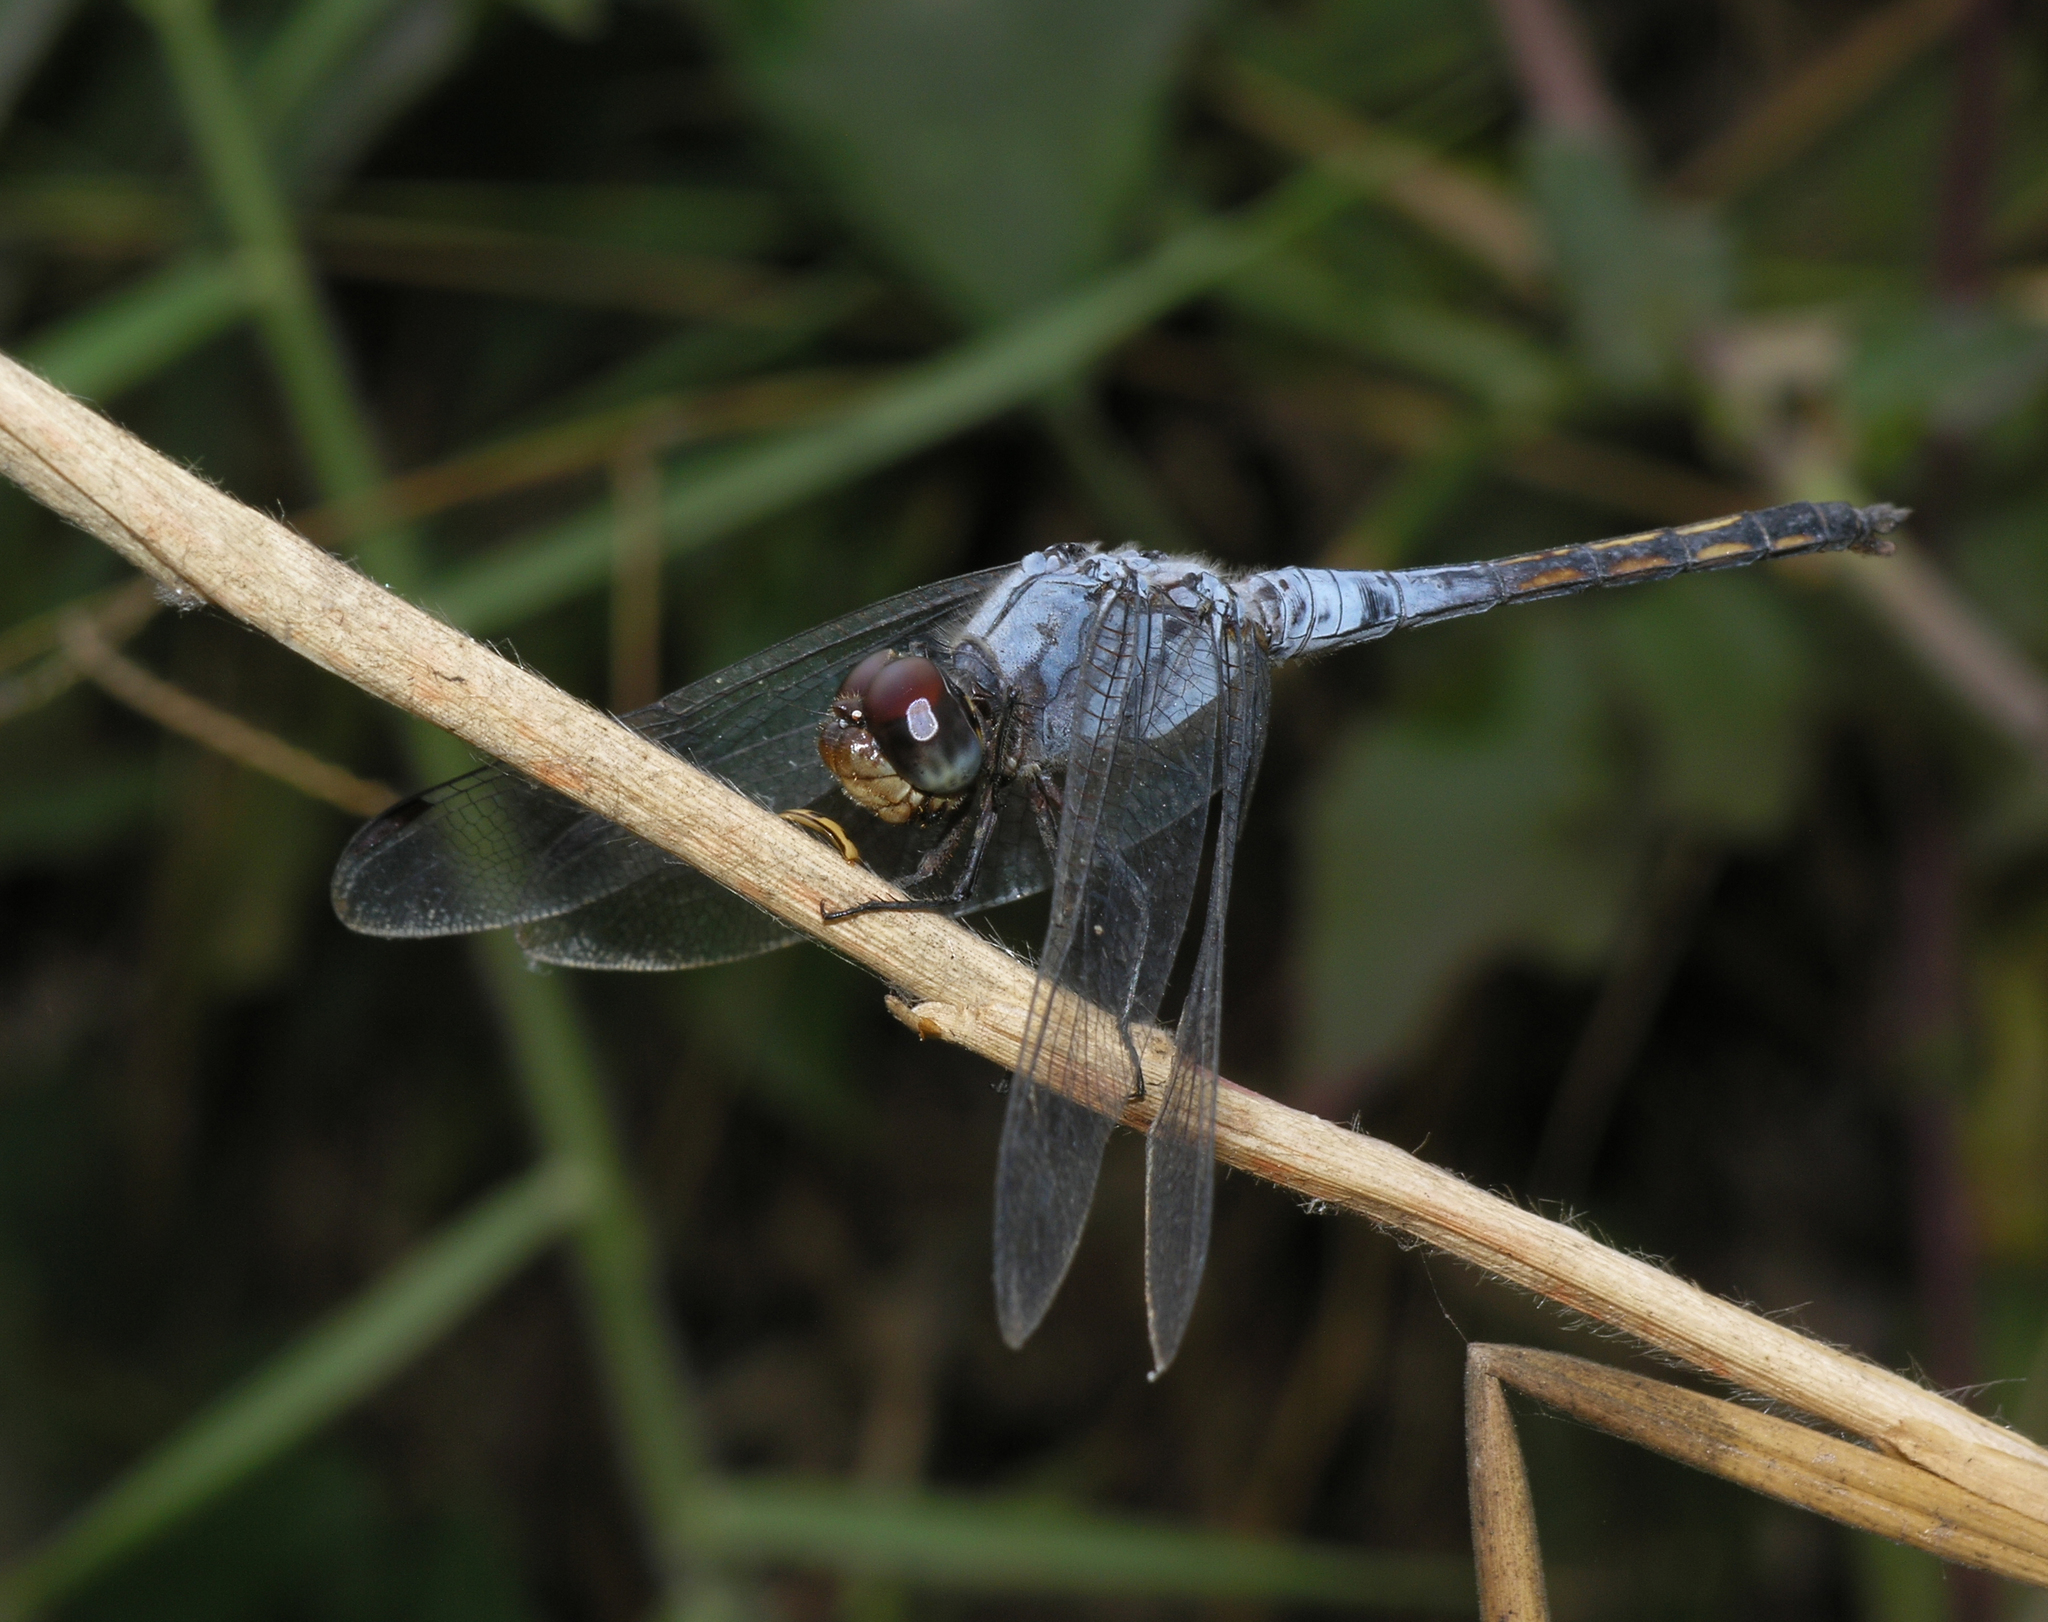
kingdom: Animalia
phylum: Arthropoda
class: Insecta
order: Odonata
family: Libellulidae
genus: Potamarcha
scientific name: Potamarcha congener
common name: Blue chaser
